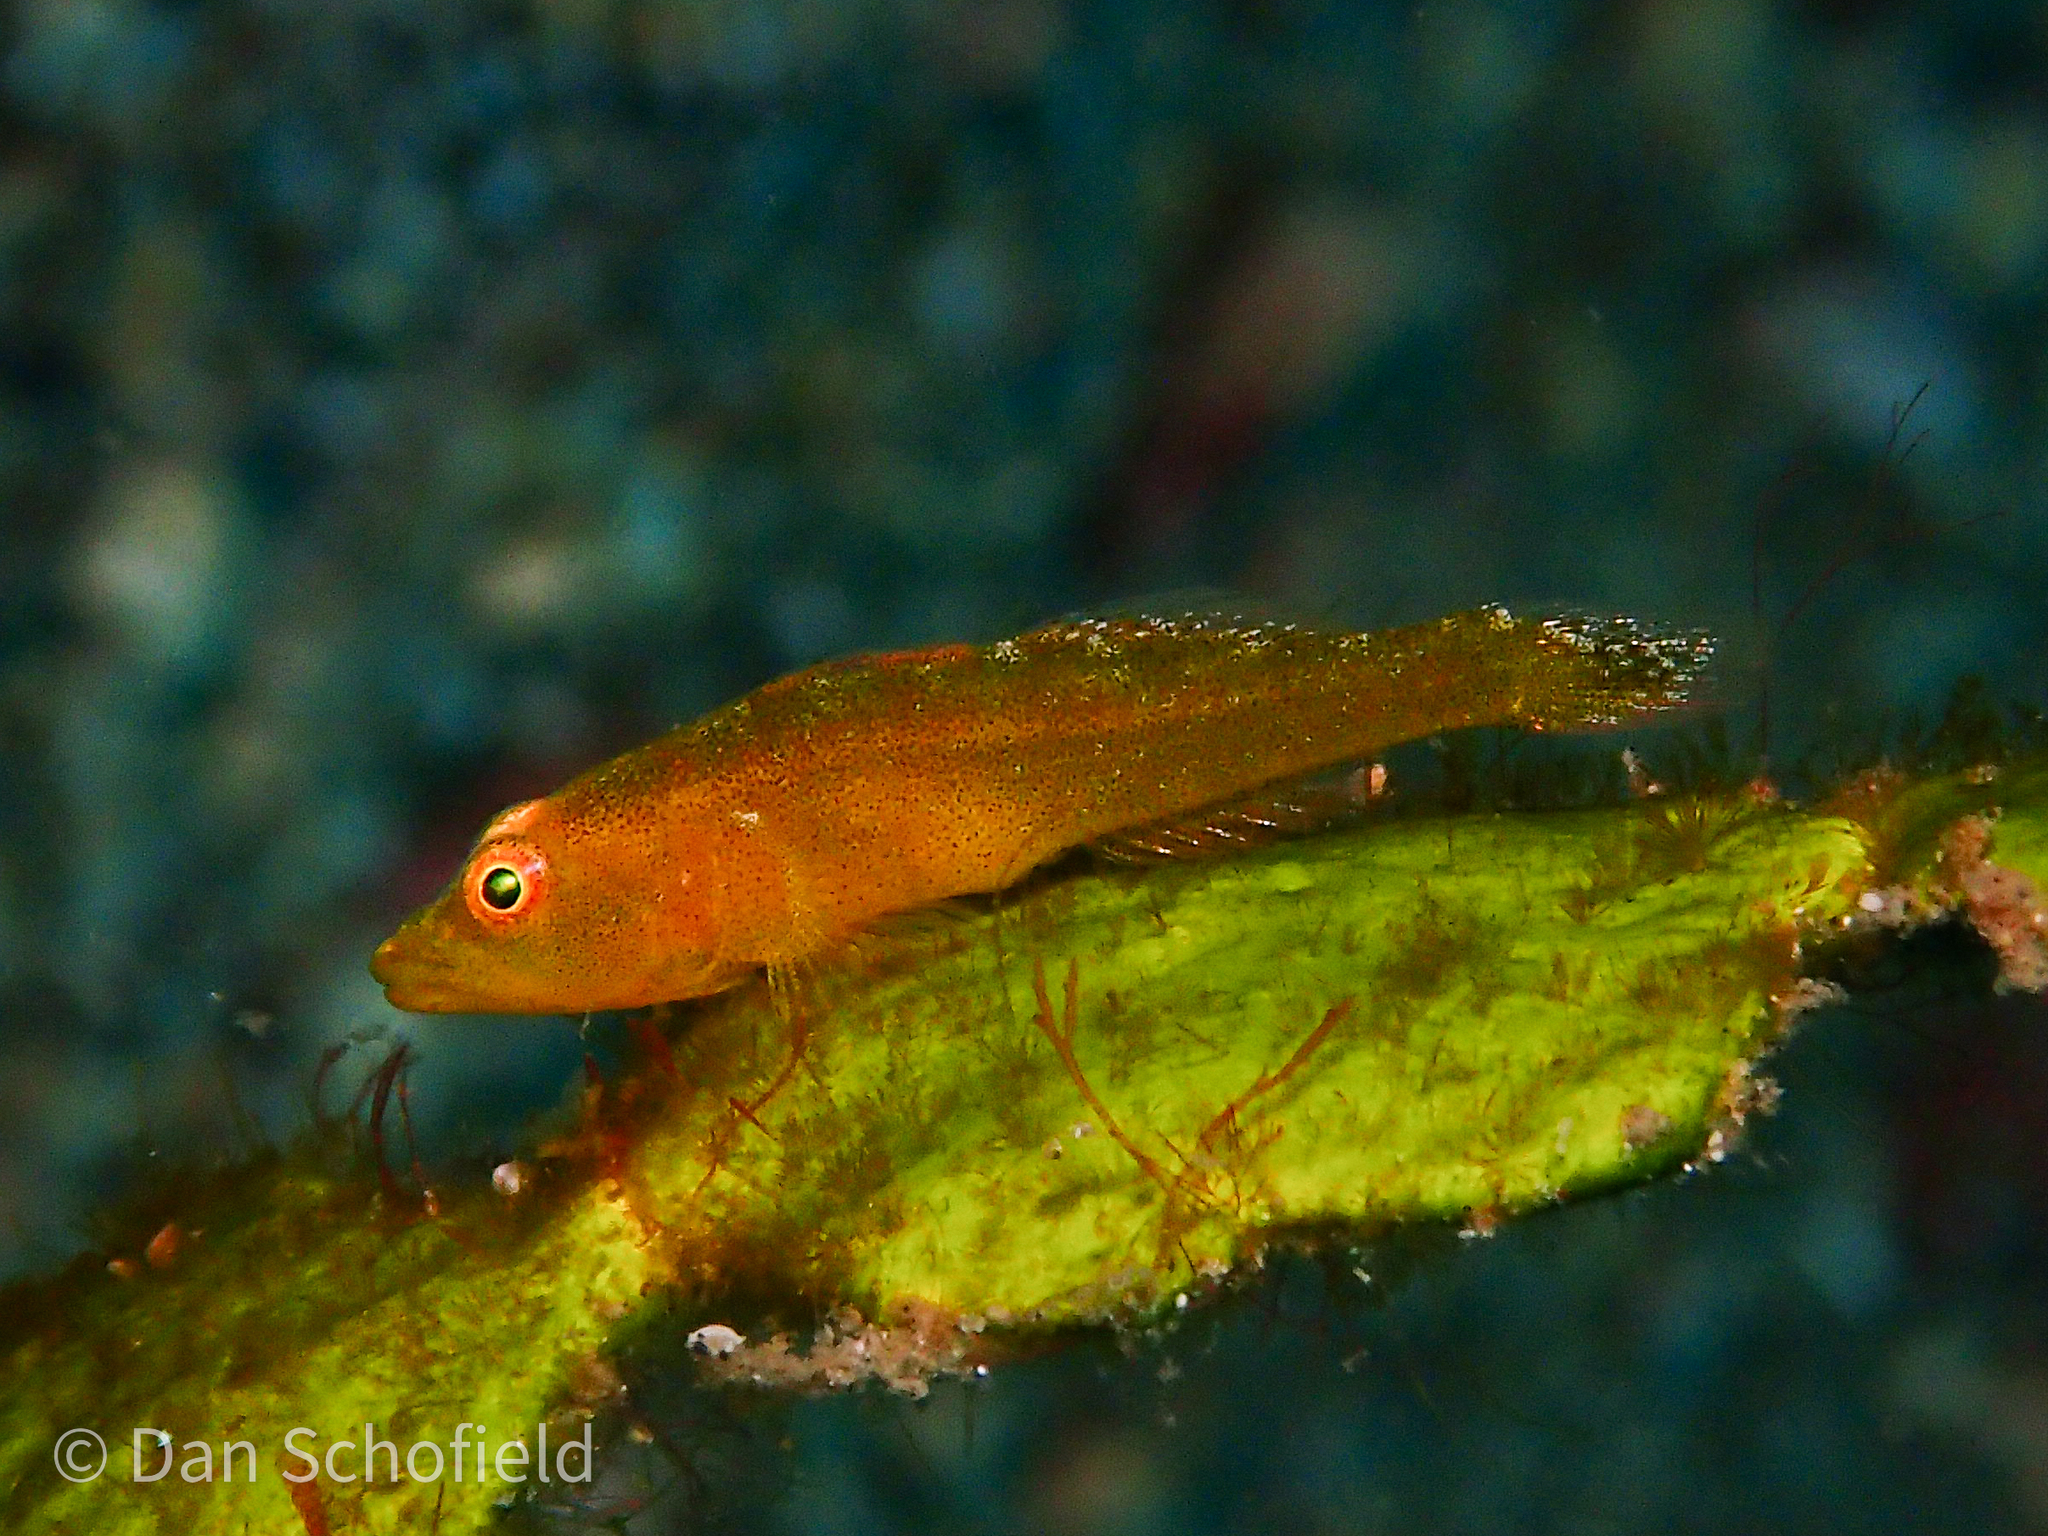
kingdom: Animalia
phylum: Chordata
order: Perciformes
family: Gobiidae
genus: Pleurosicya
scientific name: Pleurosicya mossambica
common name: Common ghost goby
